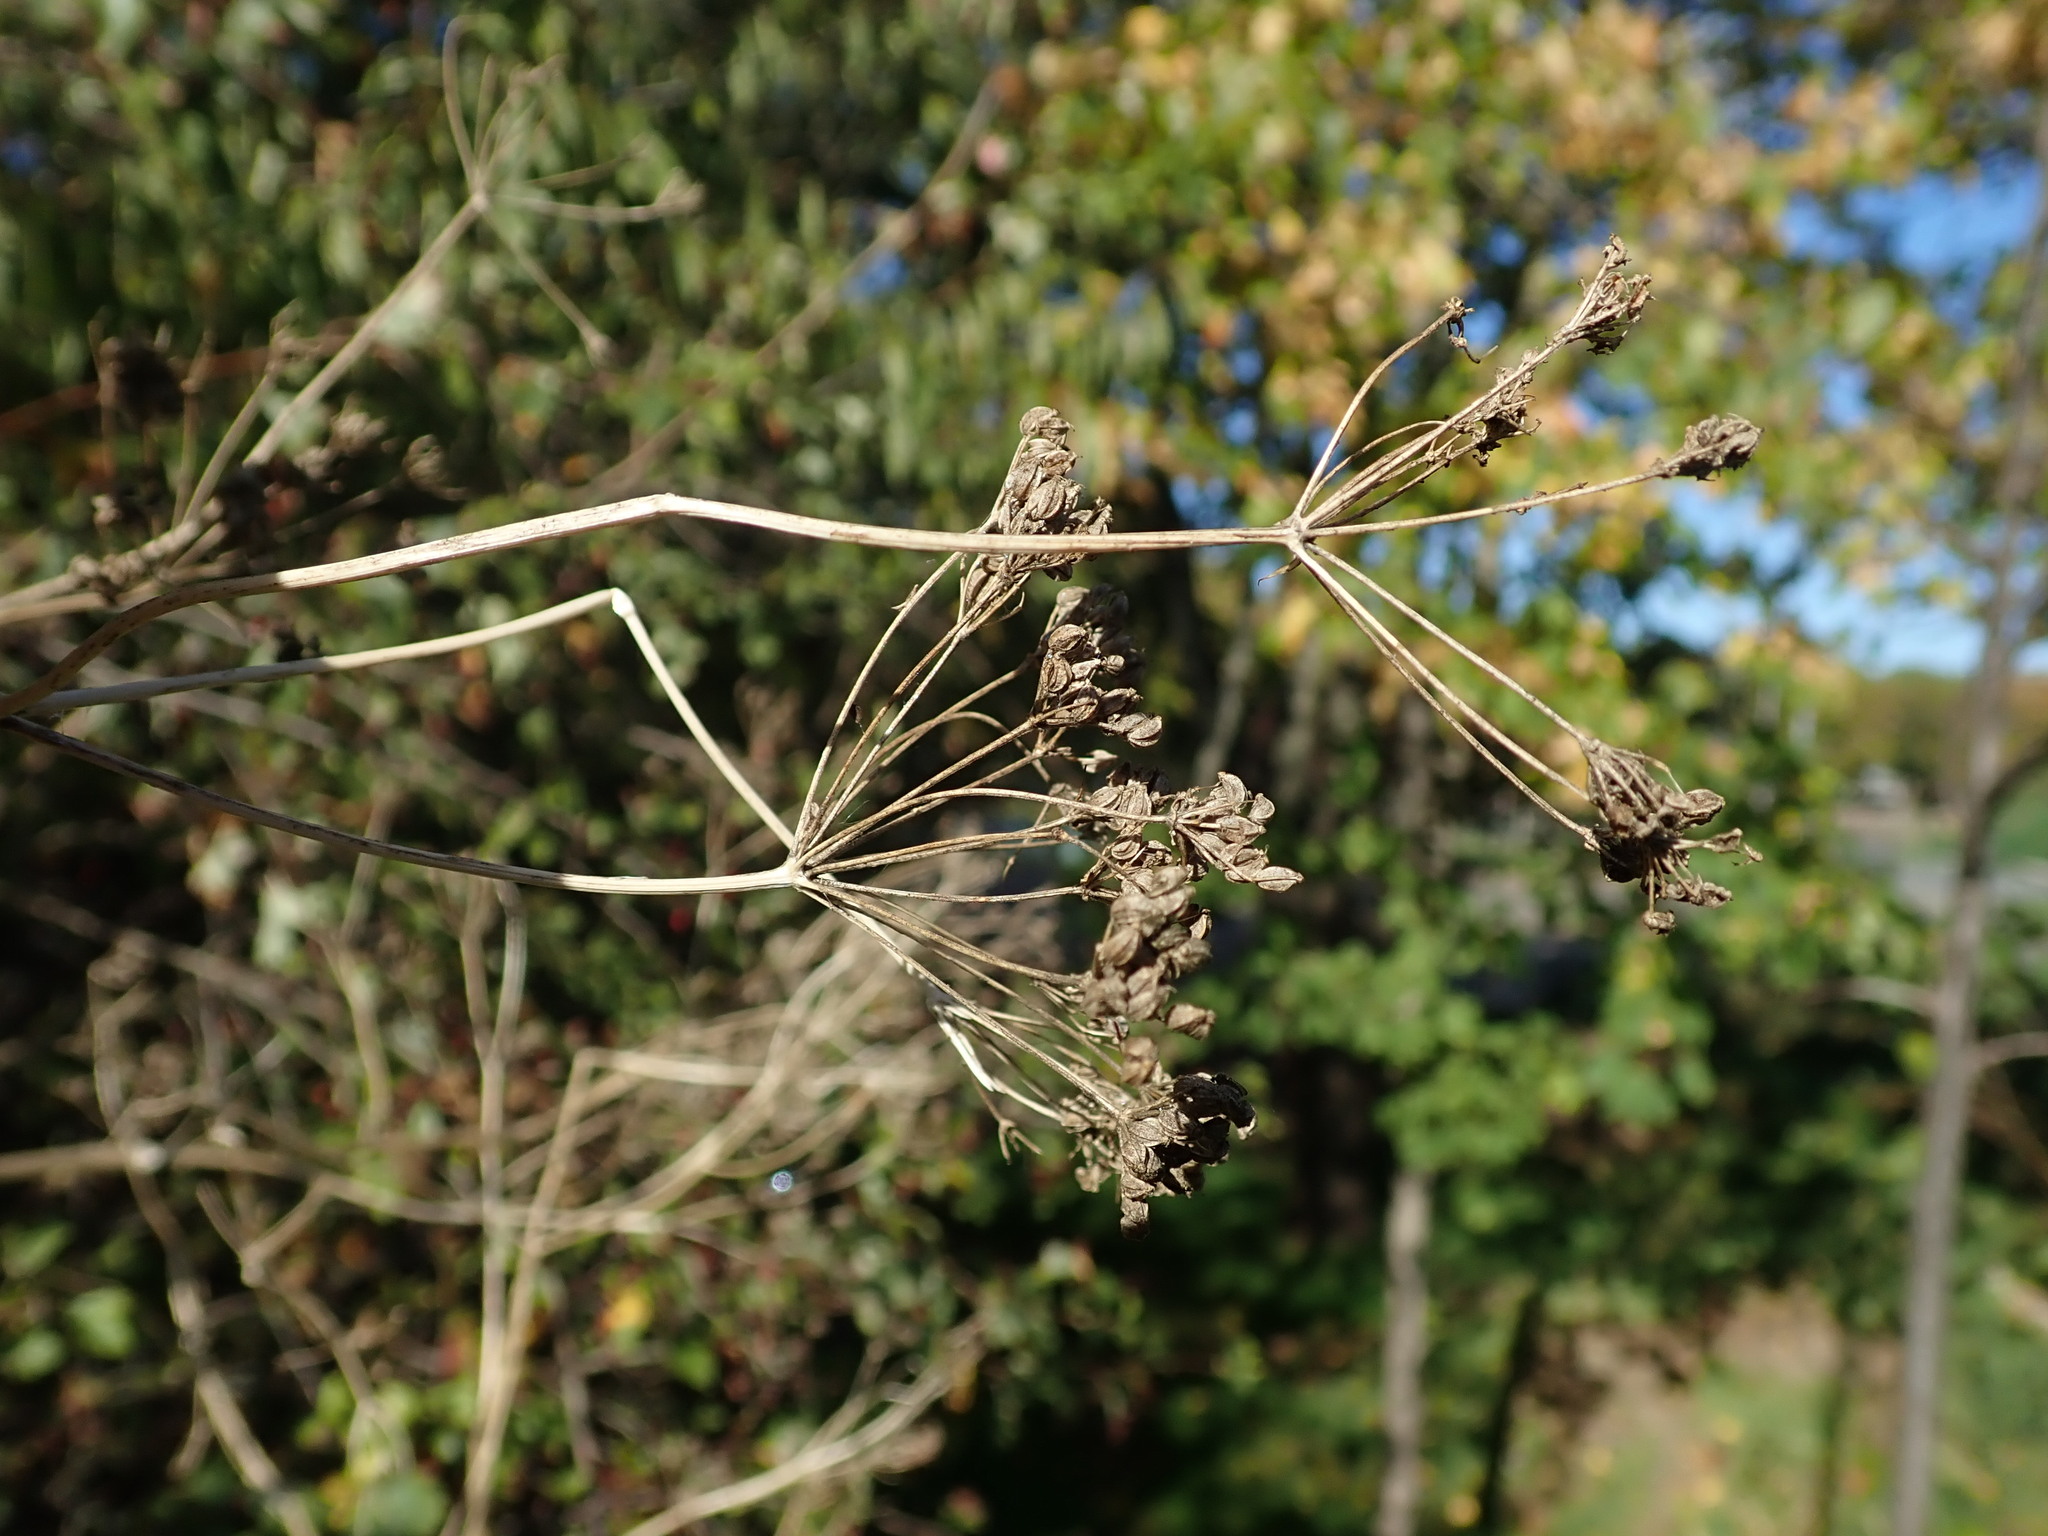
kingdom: Plantae
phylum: Tracheophyta
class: Magnoliopsida
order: Apiales
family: Apiaceae
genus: Conium
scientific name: Conium maculatum
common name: Hemlock
